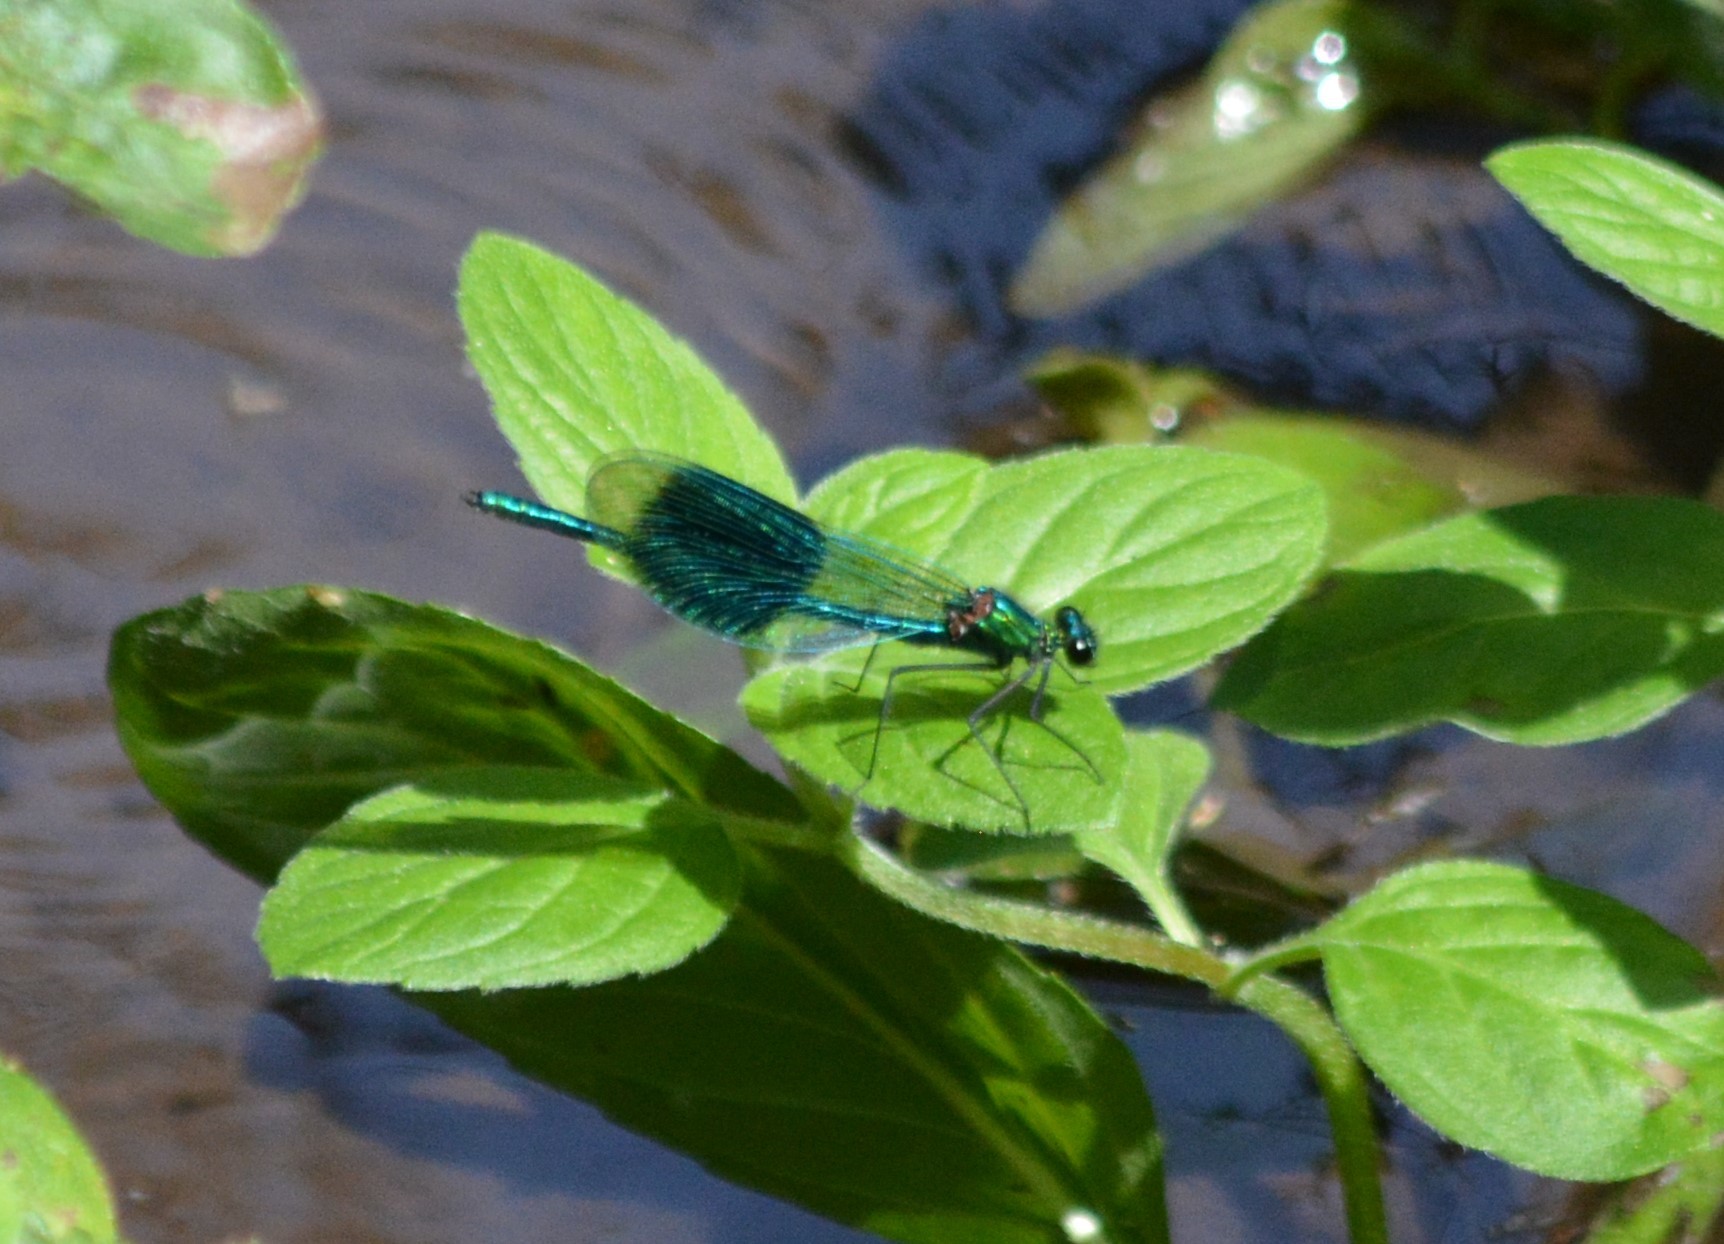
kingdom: Animalia
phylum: Arthropoda
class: Insecta
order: Odonata
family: Calopterygidae
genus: Calopteryx
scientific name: Calopteryx splendens
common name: Banded demoiselle
